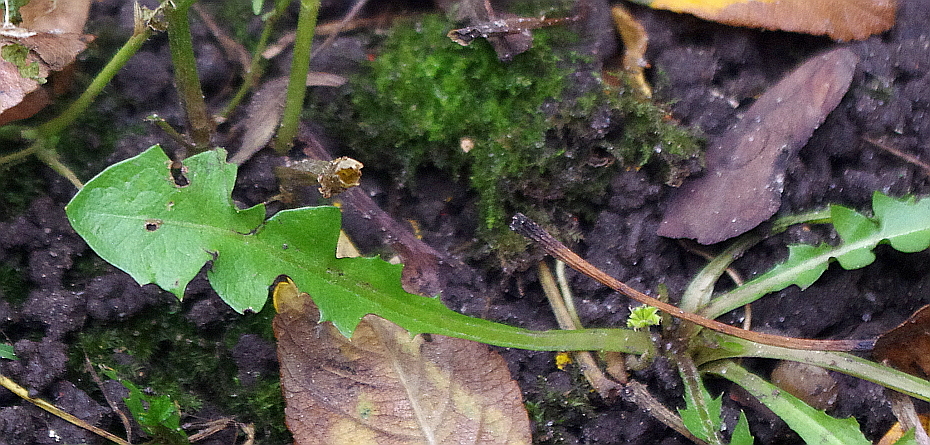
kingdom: Plantae
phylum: Tracheophyta
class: Magnoliopsida
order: Asterales
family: Asteraceae
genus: Taraxacum
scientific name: Taraxacum officinale
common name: Common dandelion
